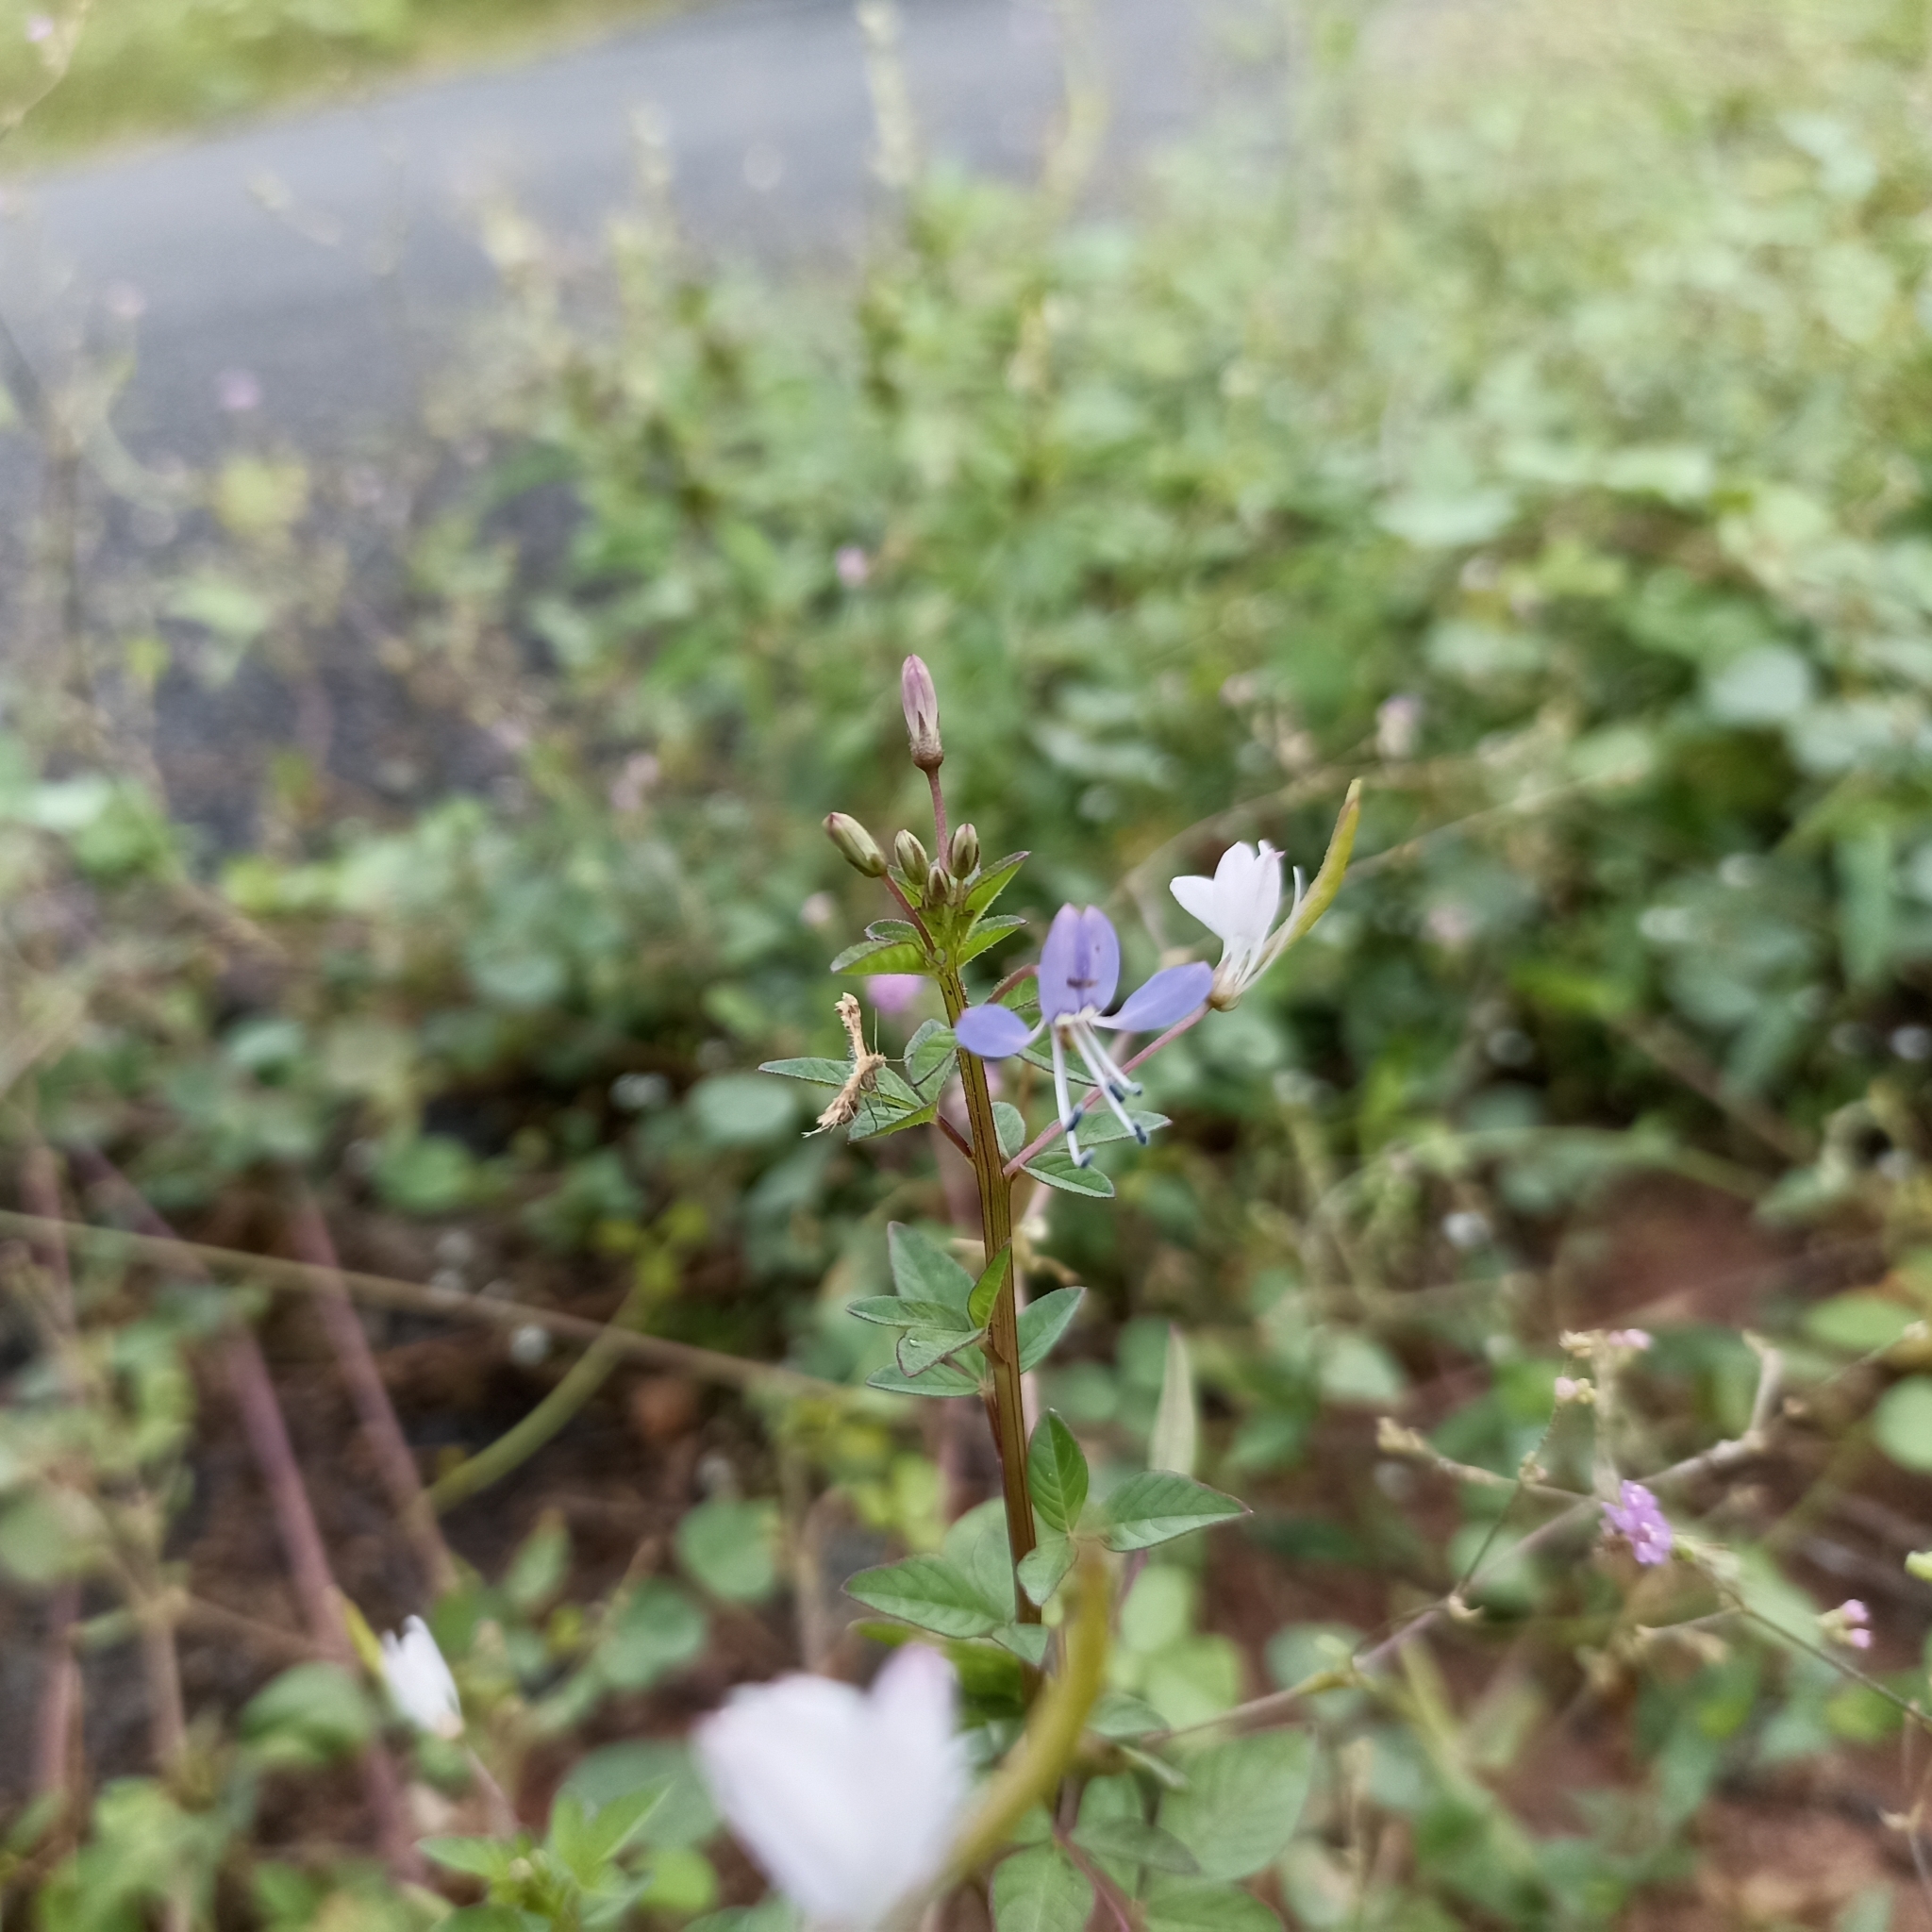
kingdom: Plantae
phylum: Tracheophyta
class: Magnoliopsida
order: Brassicales
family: Cleomaceae
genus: Sieruela
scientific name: Sieruela rutidosperma
